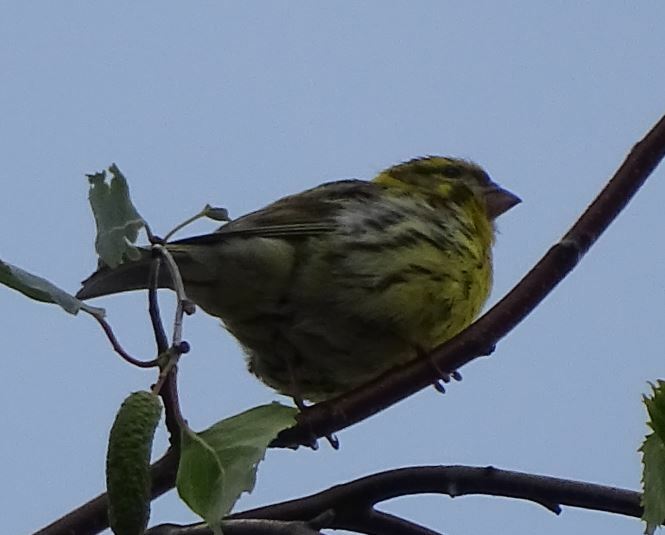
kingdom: Animalia
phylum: Chordata
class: Aves
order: Passeriformes
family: Fringillidae
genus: Serinus
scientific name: Serinus serinus
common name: European serin
